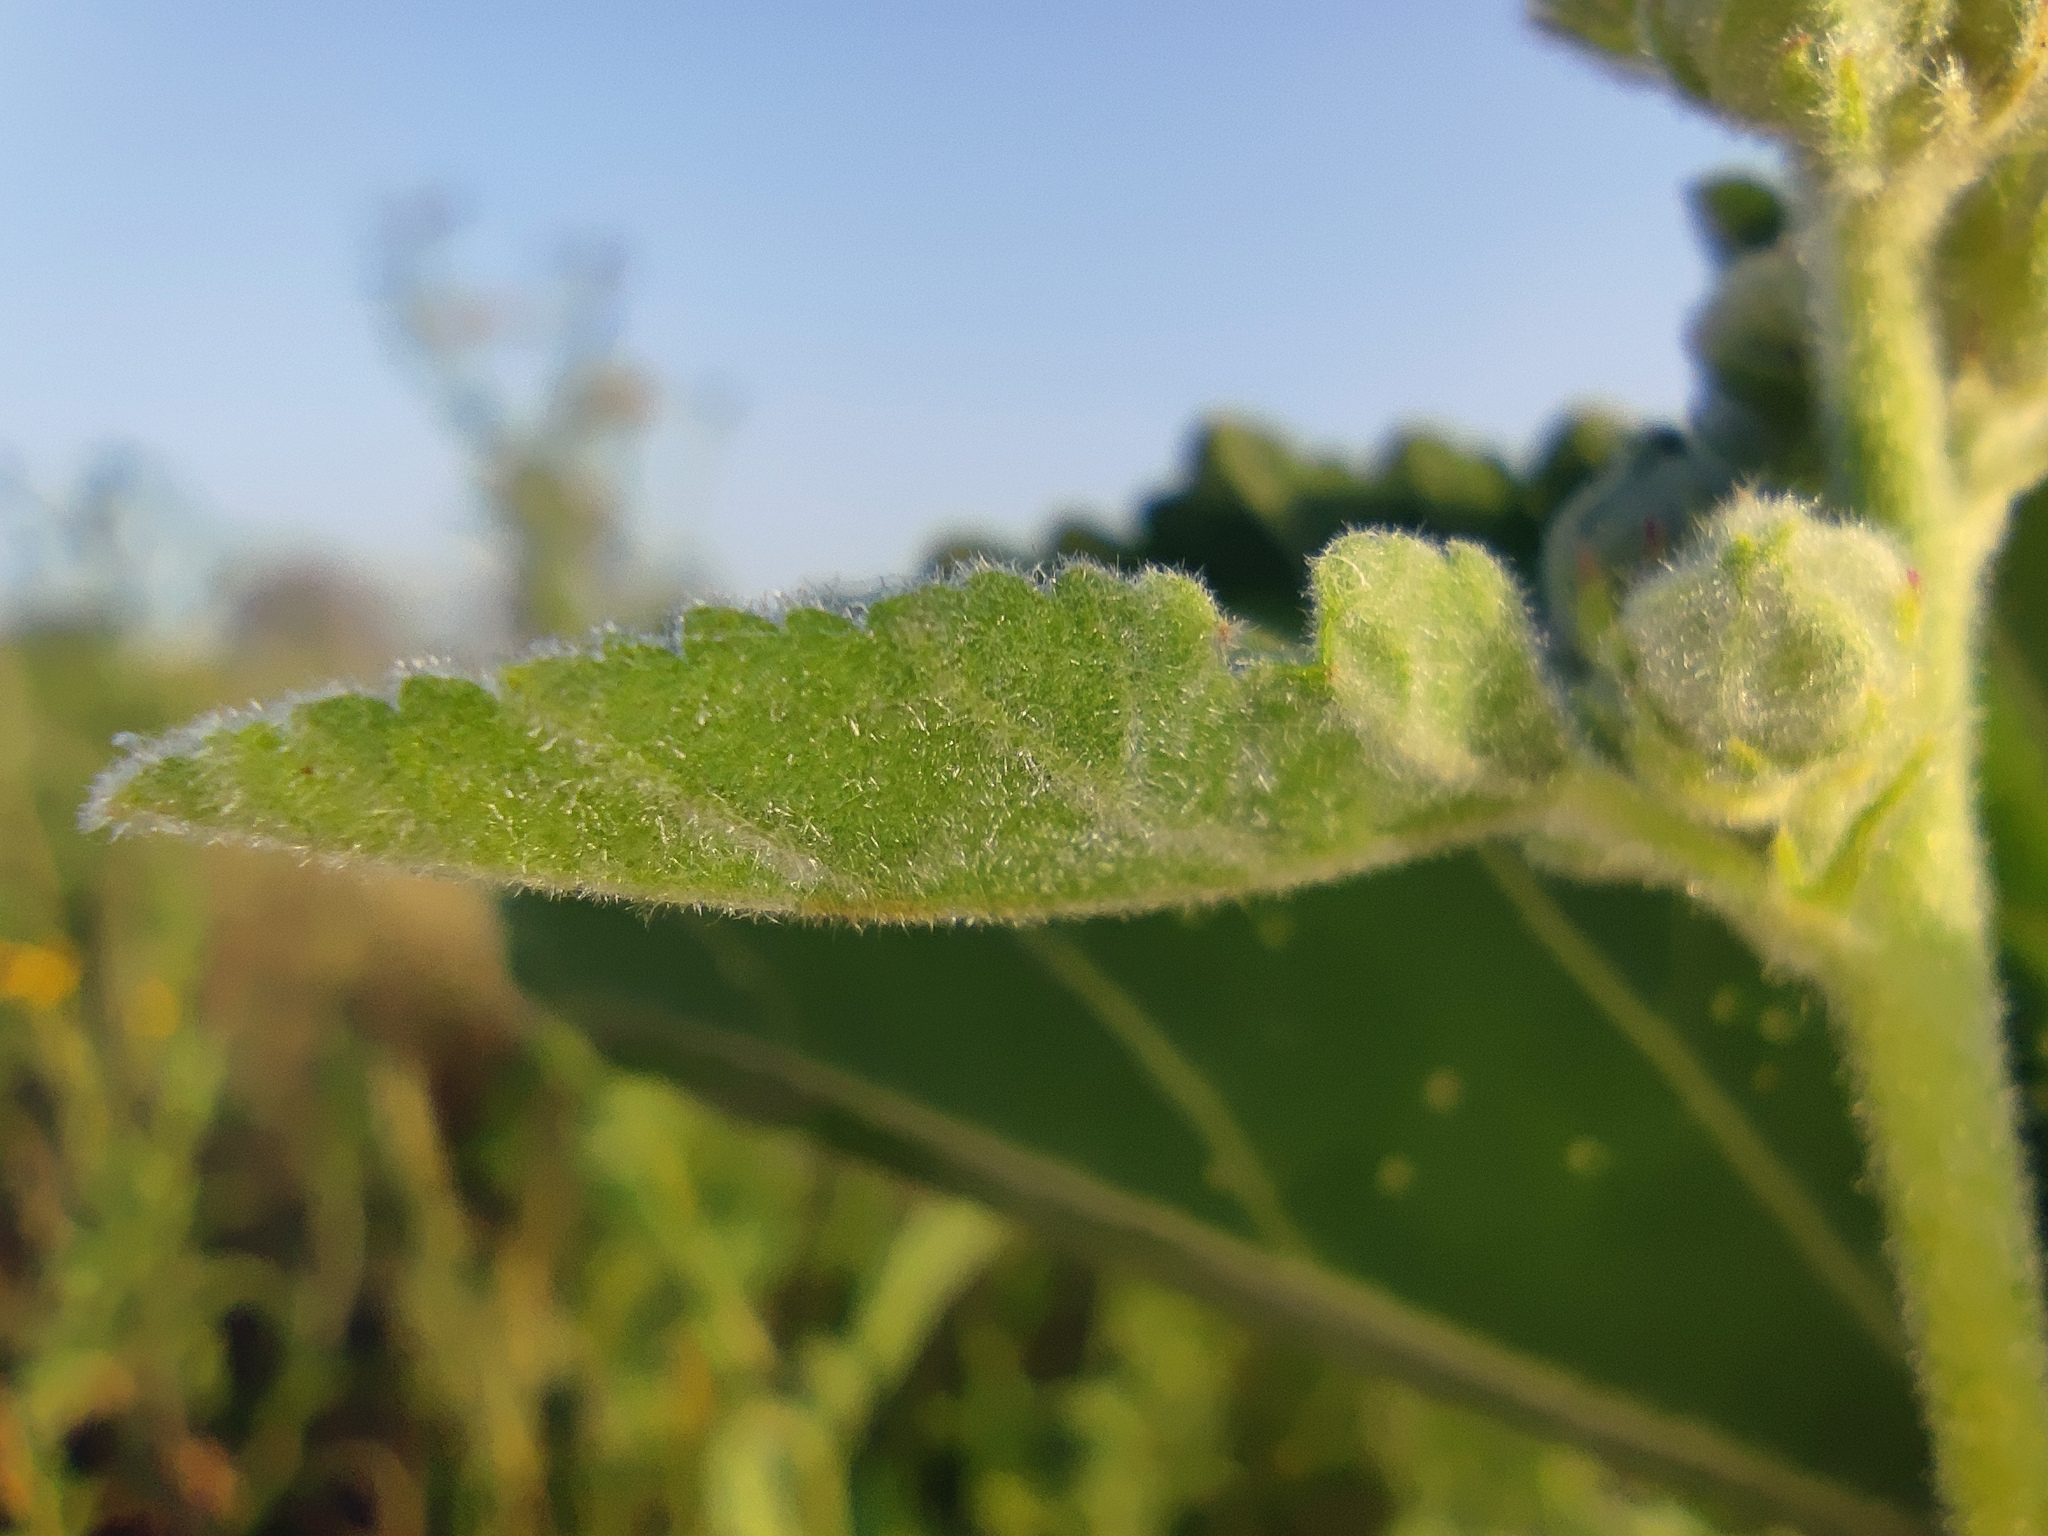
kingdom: Plantae
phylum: Tracheophyta
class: Magnoliopsida
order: Malvales
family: Malvaceae
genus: Althaea
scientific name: Althaea officinalis
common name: Marsh-mallow
